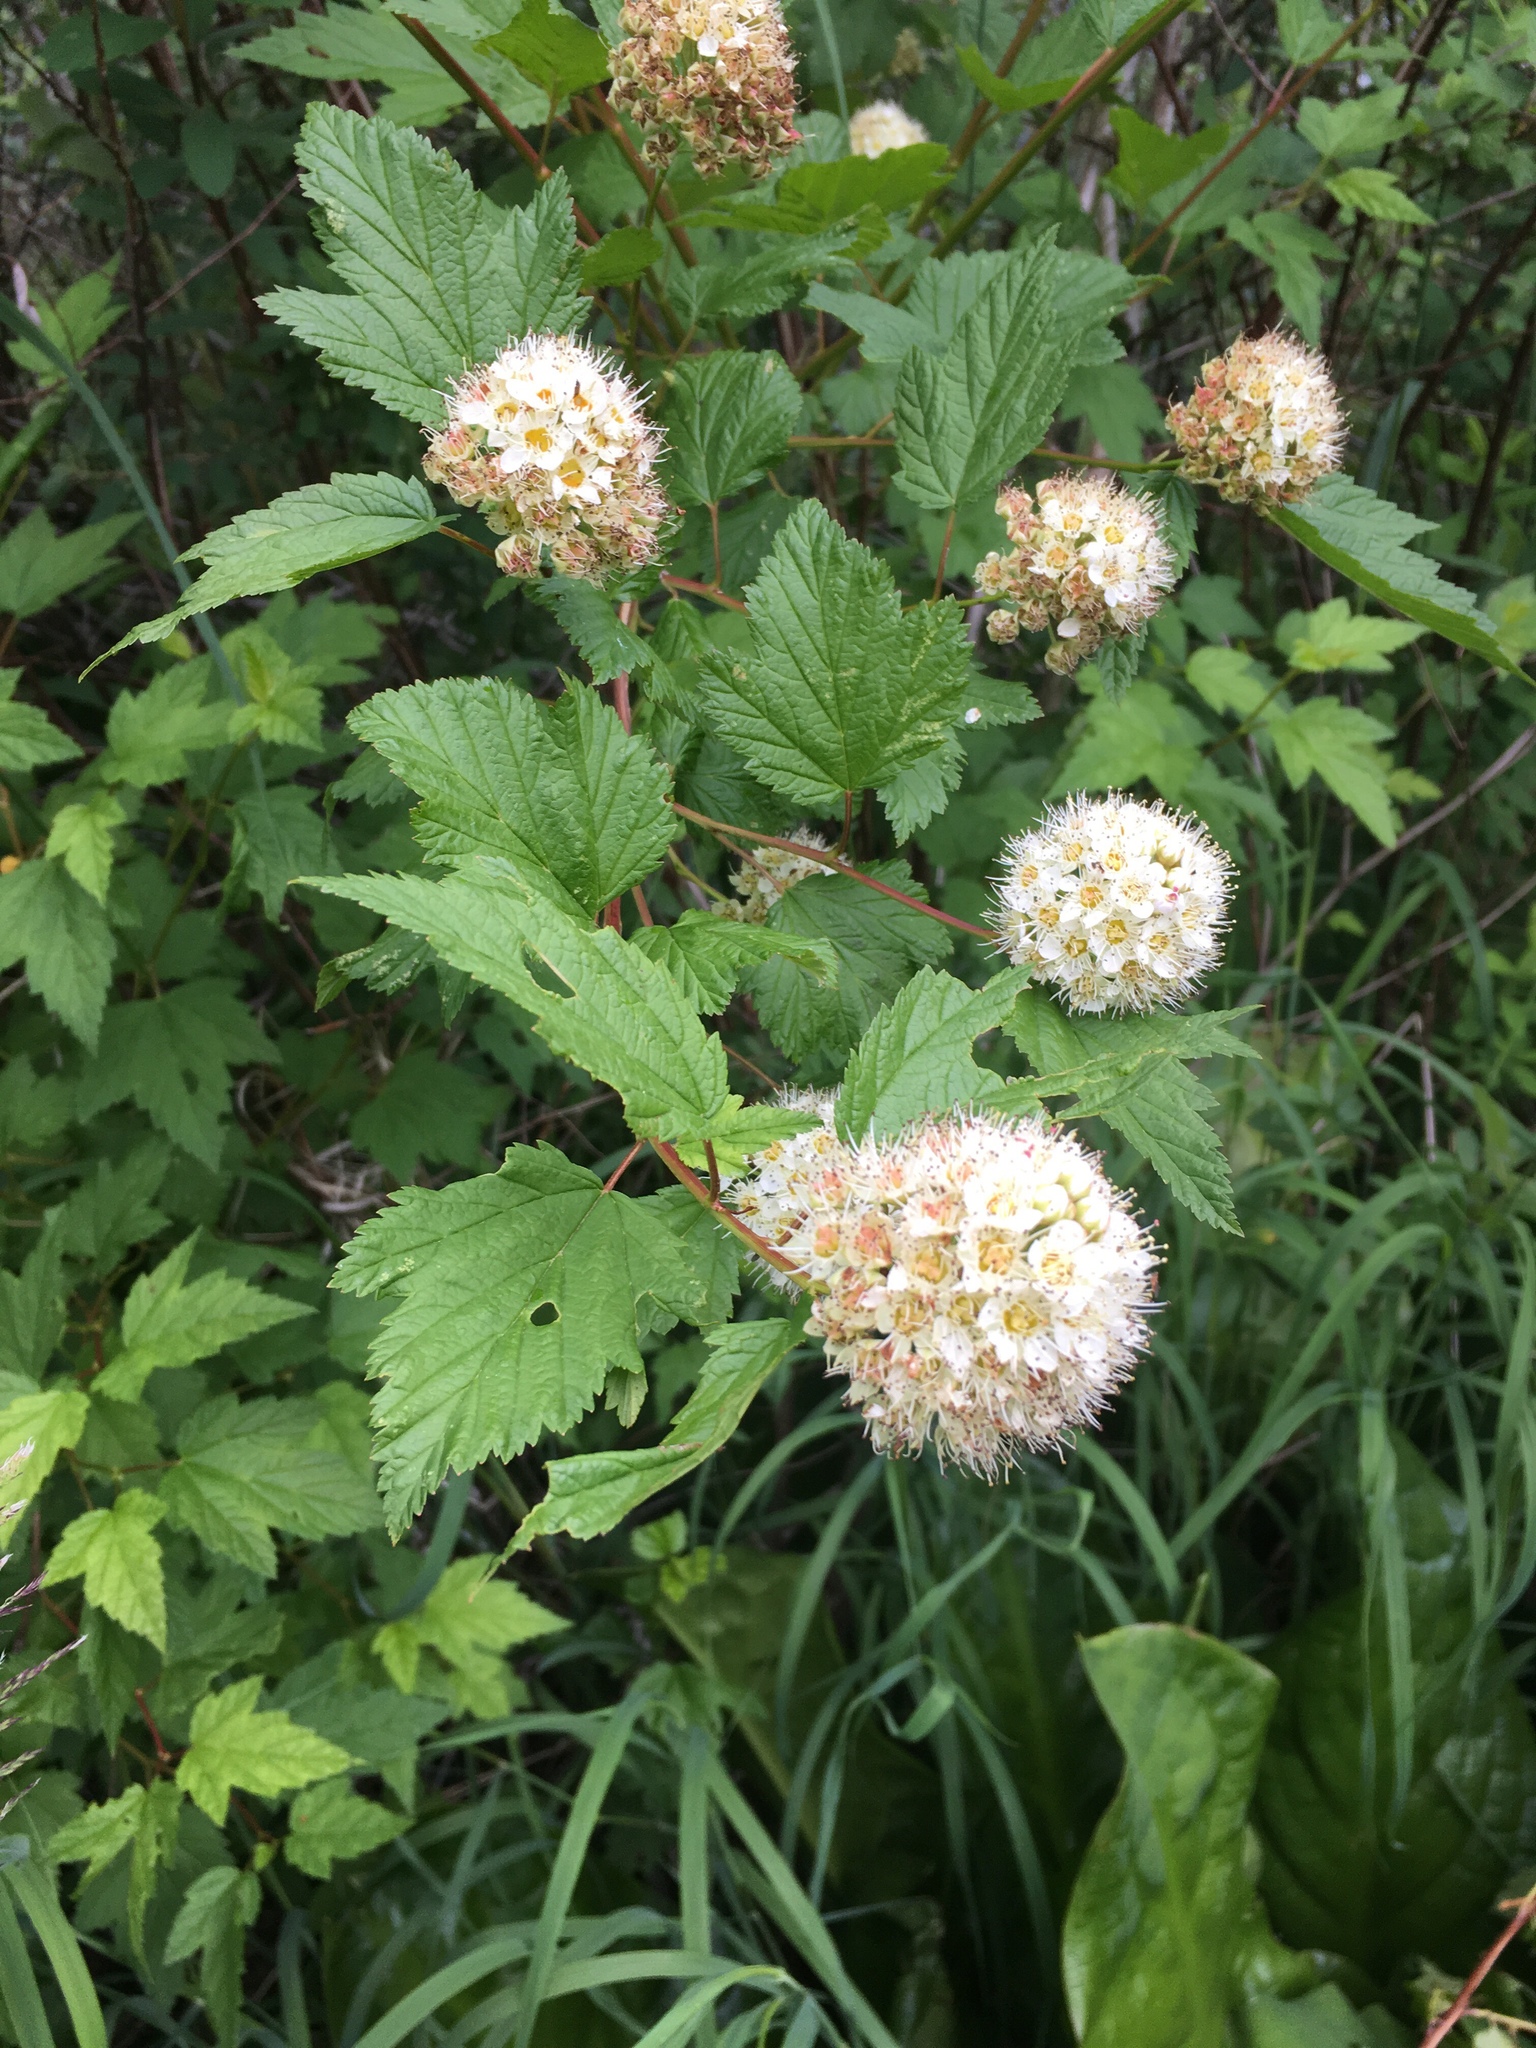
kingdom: Plantae
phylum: Tracheophyta
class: Magnoliopsida
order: Rosales
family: Rosaceae
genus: Physocarpus
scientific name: Physocarpus capitatus
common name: Pacific ninebark
